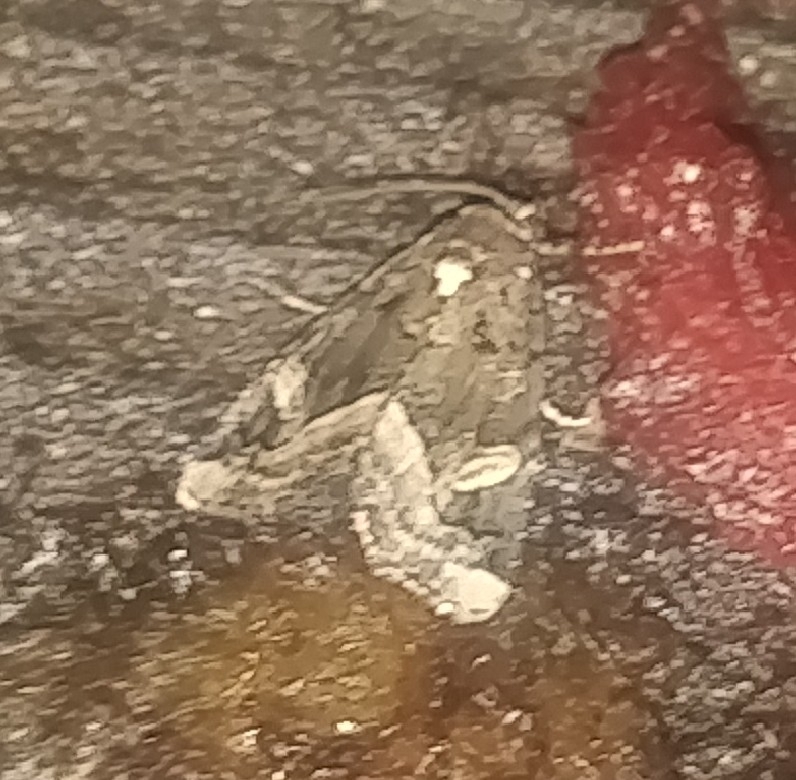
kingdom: Animalia
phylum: Arthropoda
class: Insecta
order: Lepidoptera
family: Noctuidae
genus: Homophoberia
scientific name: Homophoberia apicosa
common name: Black wedge-spot
